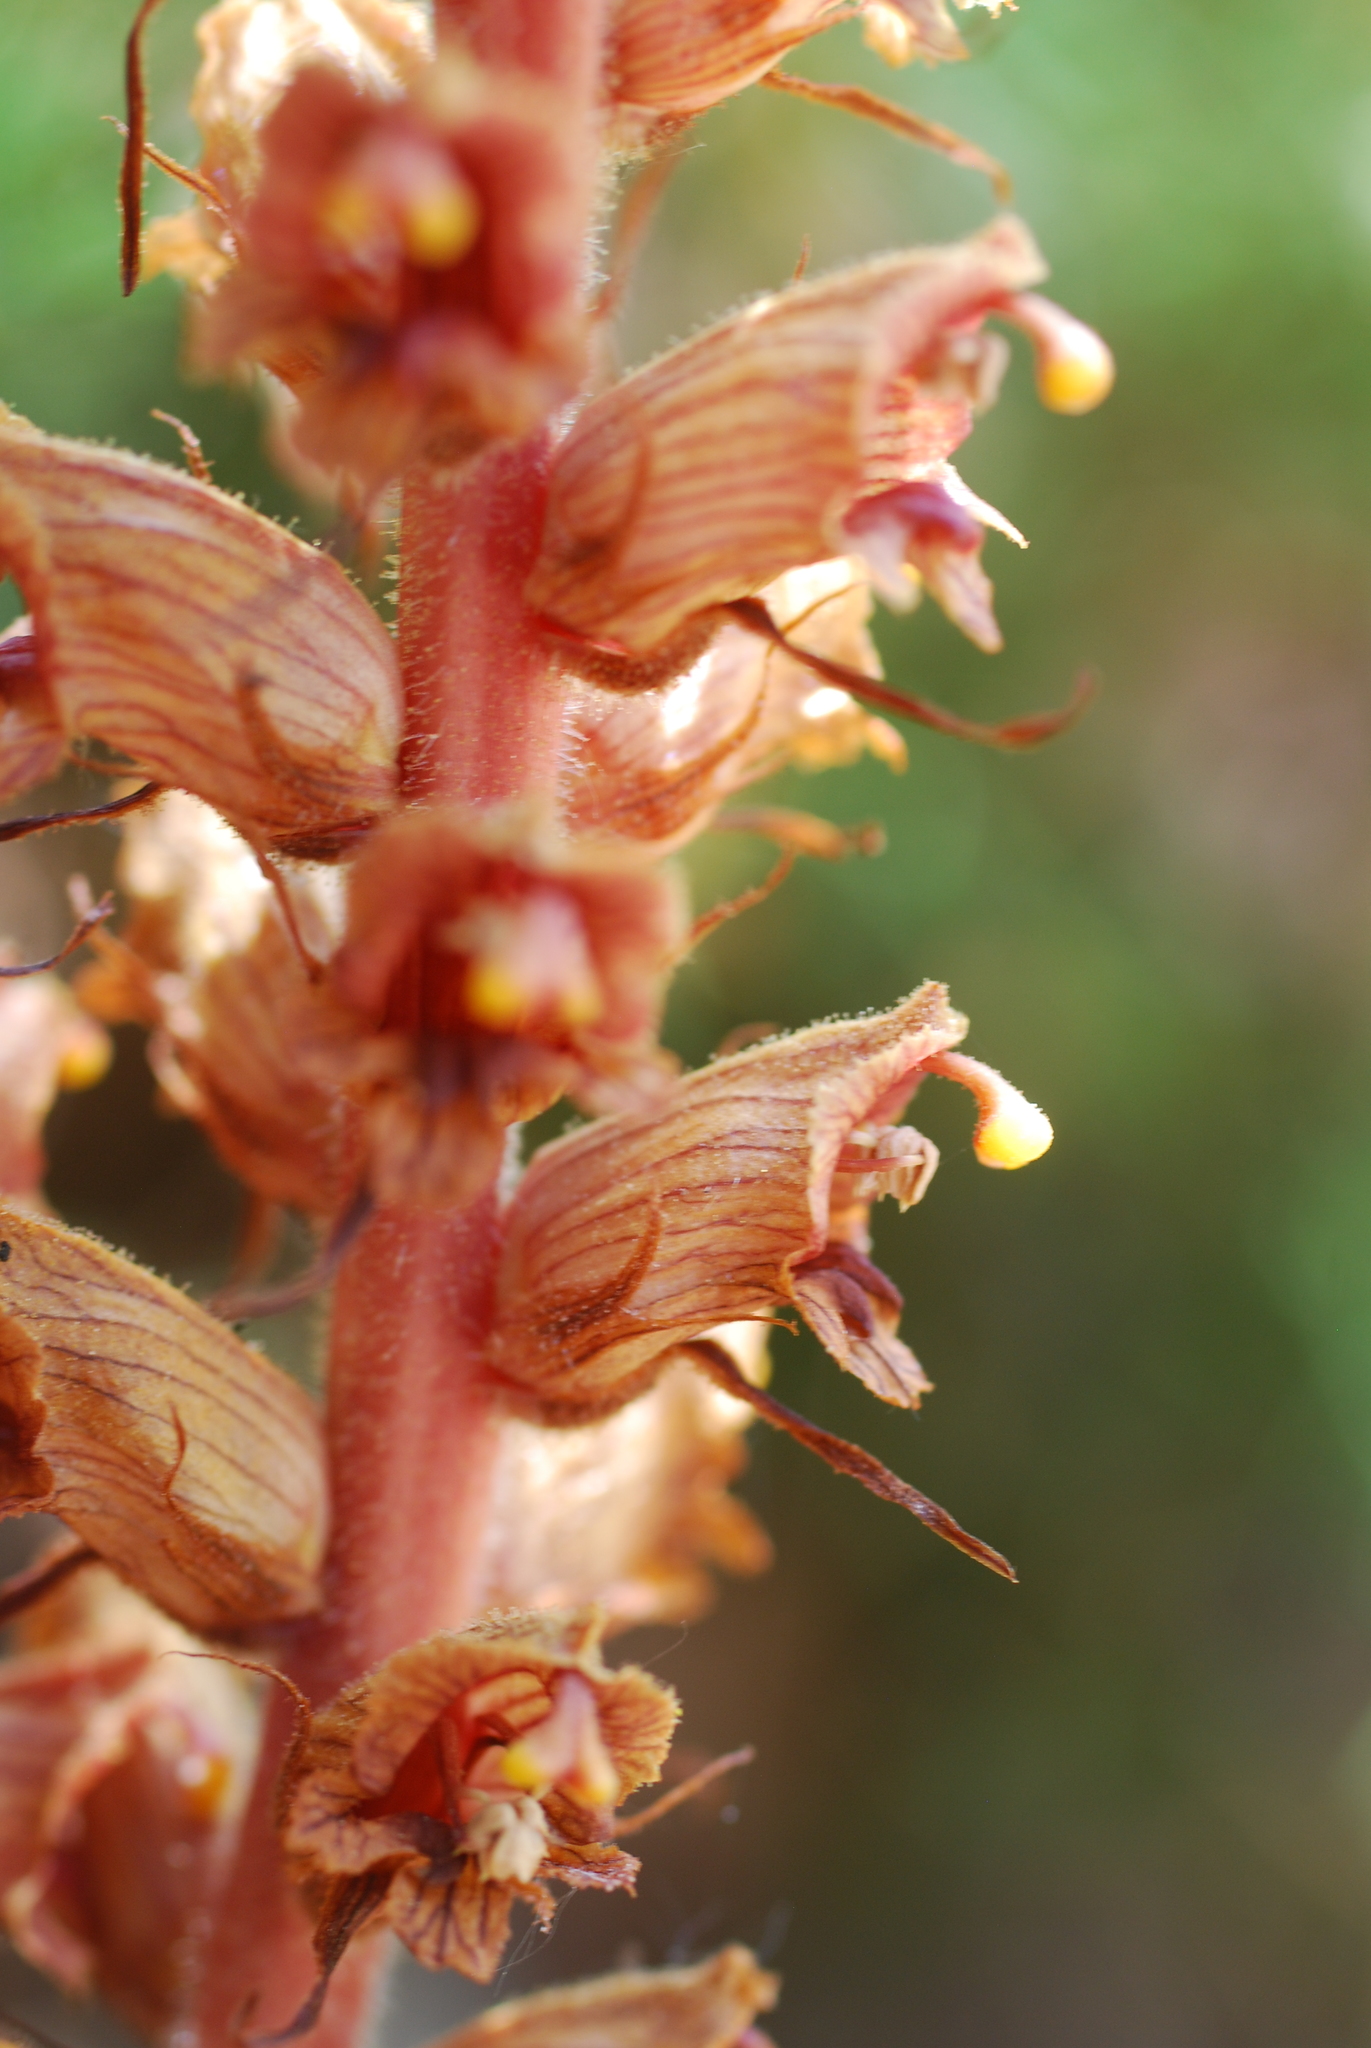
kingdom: Plantae
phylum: Tracheophyta
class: Magnoliopsida
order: Lamiales
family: Orobanchaceae
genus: Orobanche
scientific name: Orobanche austrohispanica
